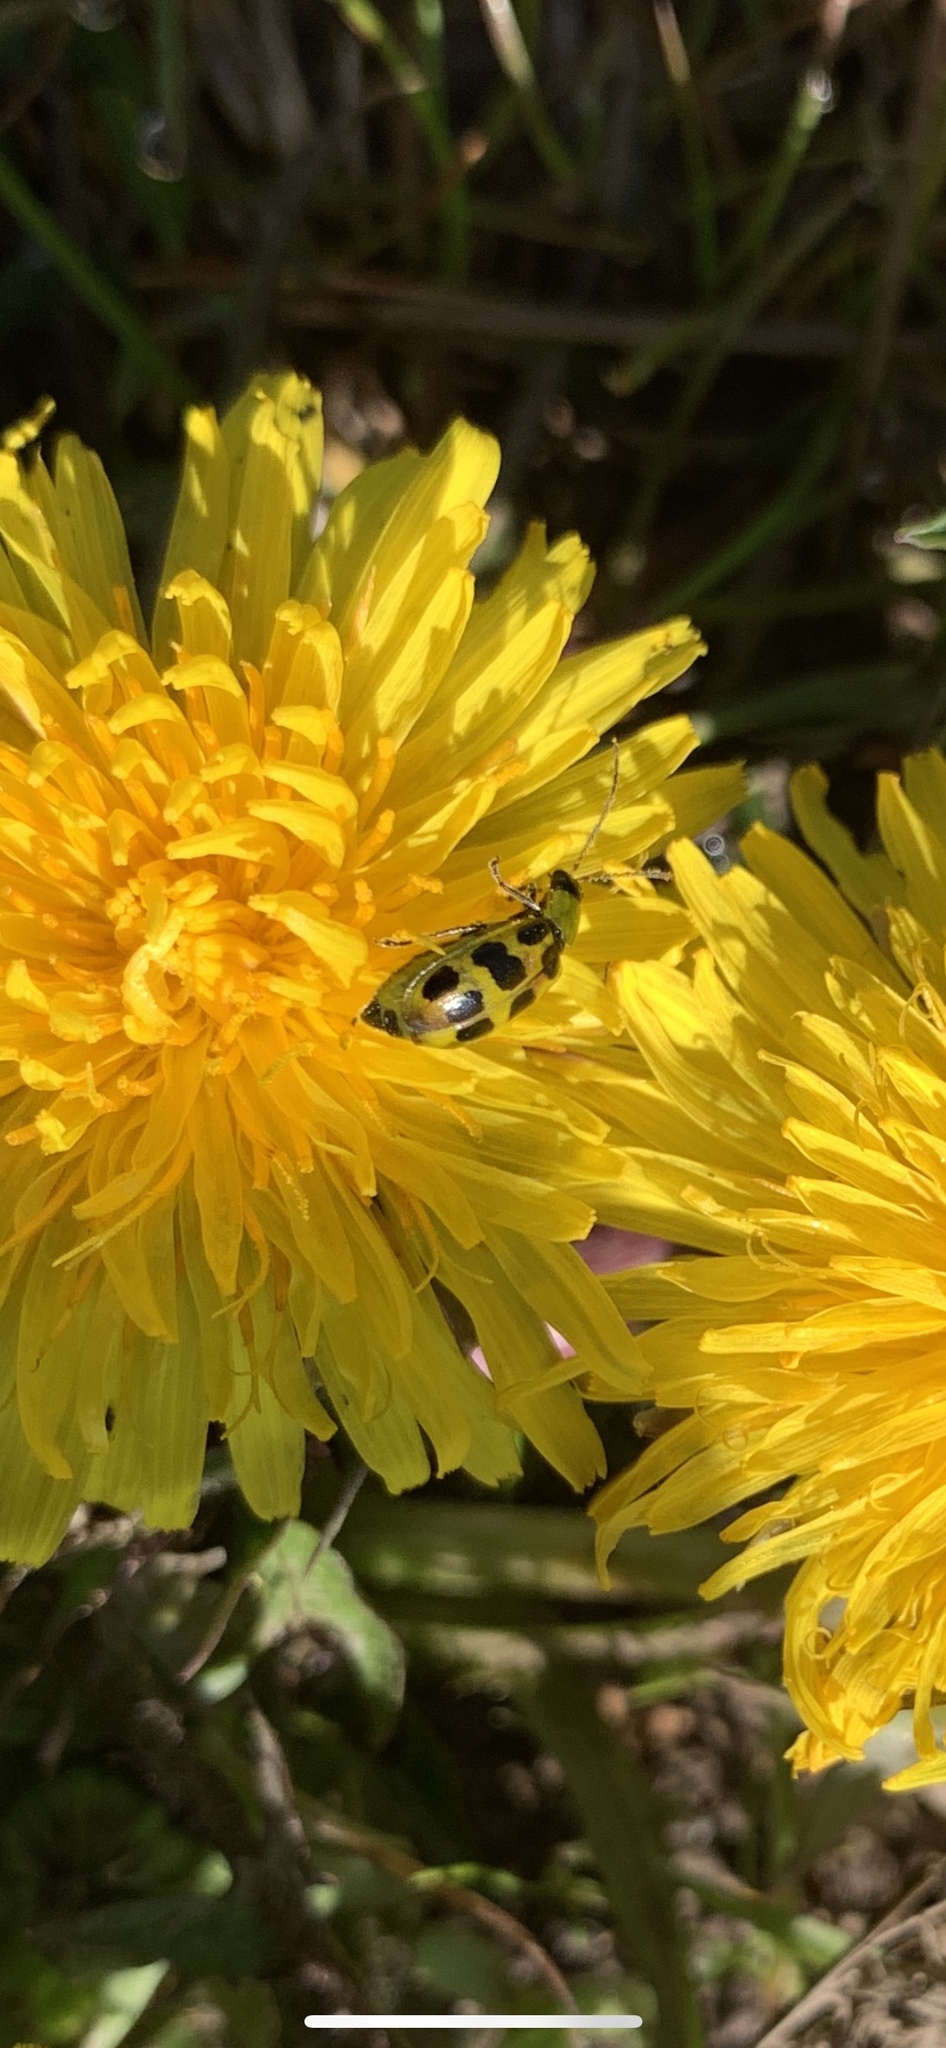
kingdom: Animalia
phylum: Arthropoda
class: Insecta
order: Coleoptera
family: Chrysomelidae
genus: Diabrotica
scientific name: Diabrotica undecimpunctata
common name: Spotted cucumber beetle
